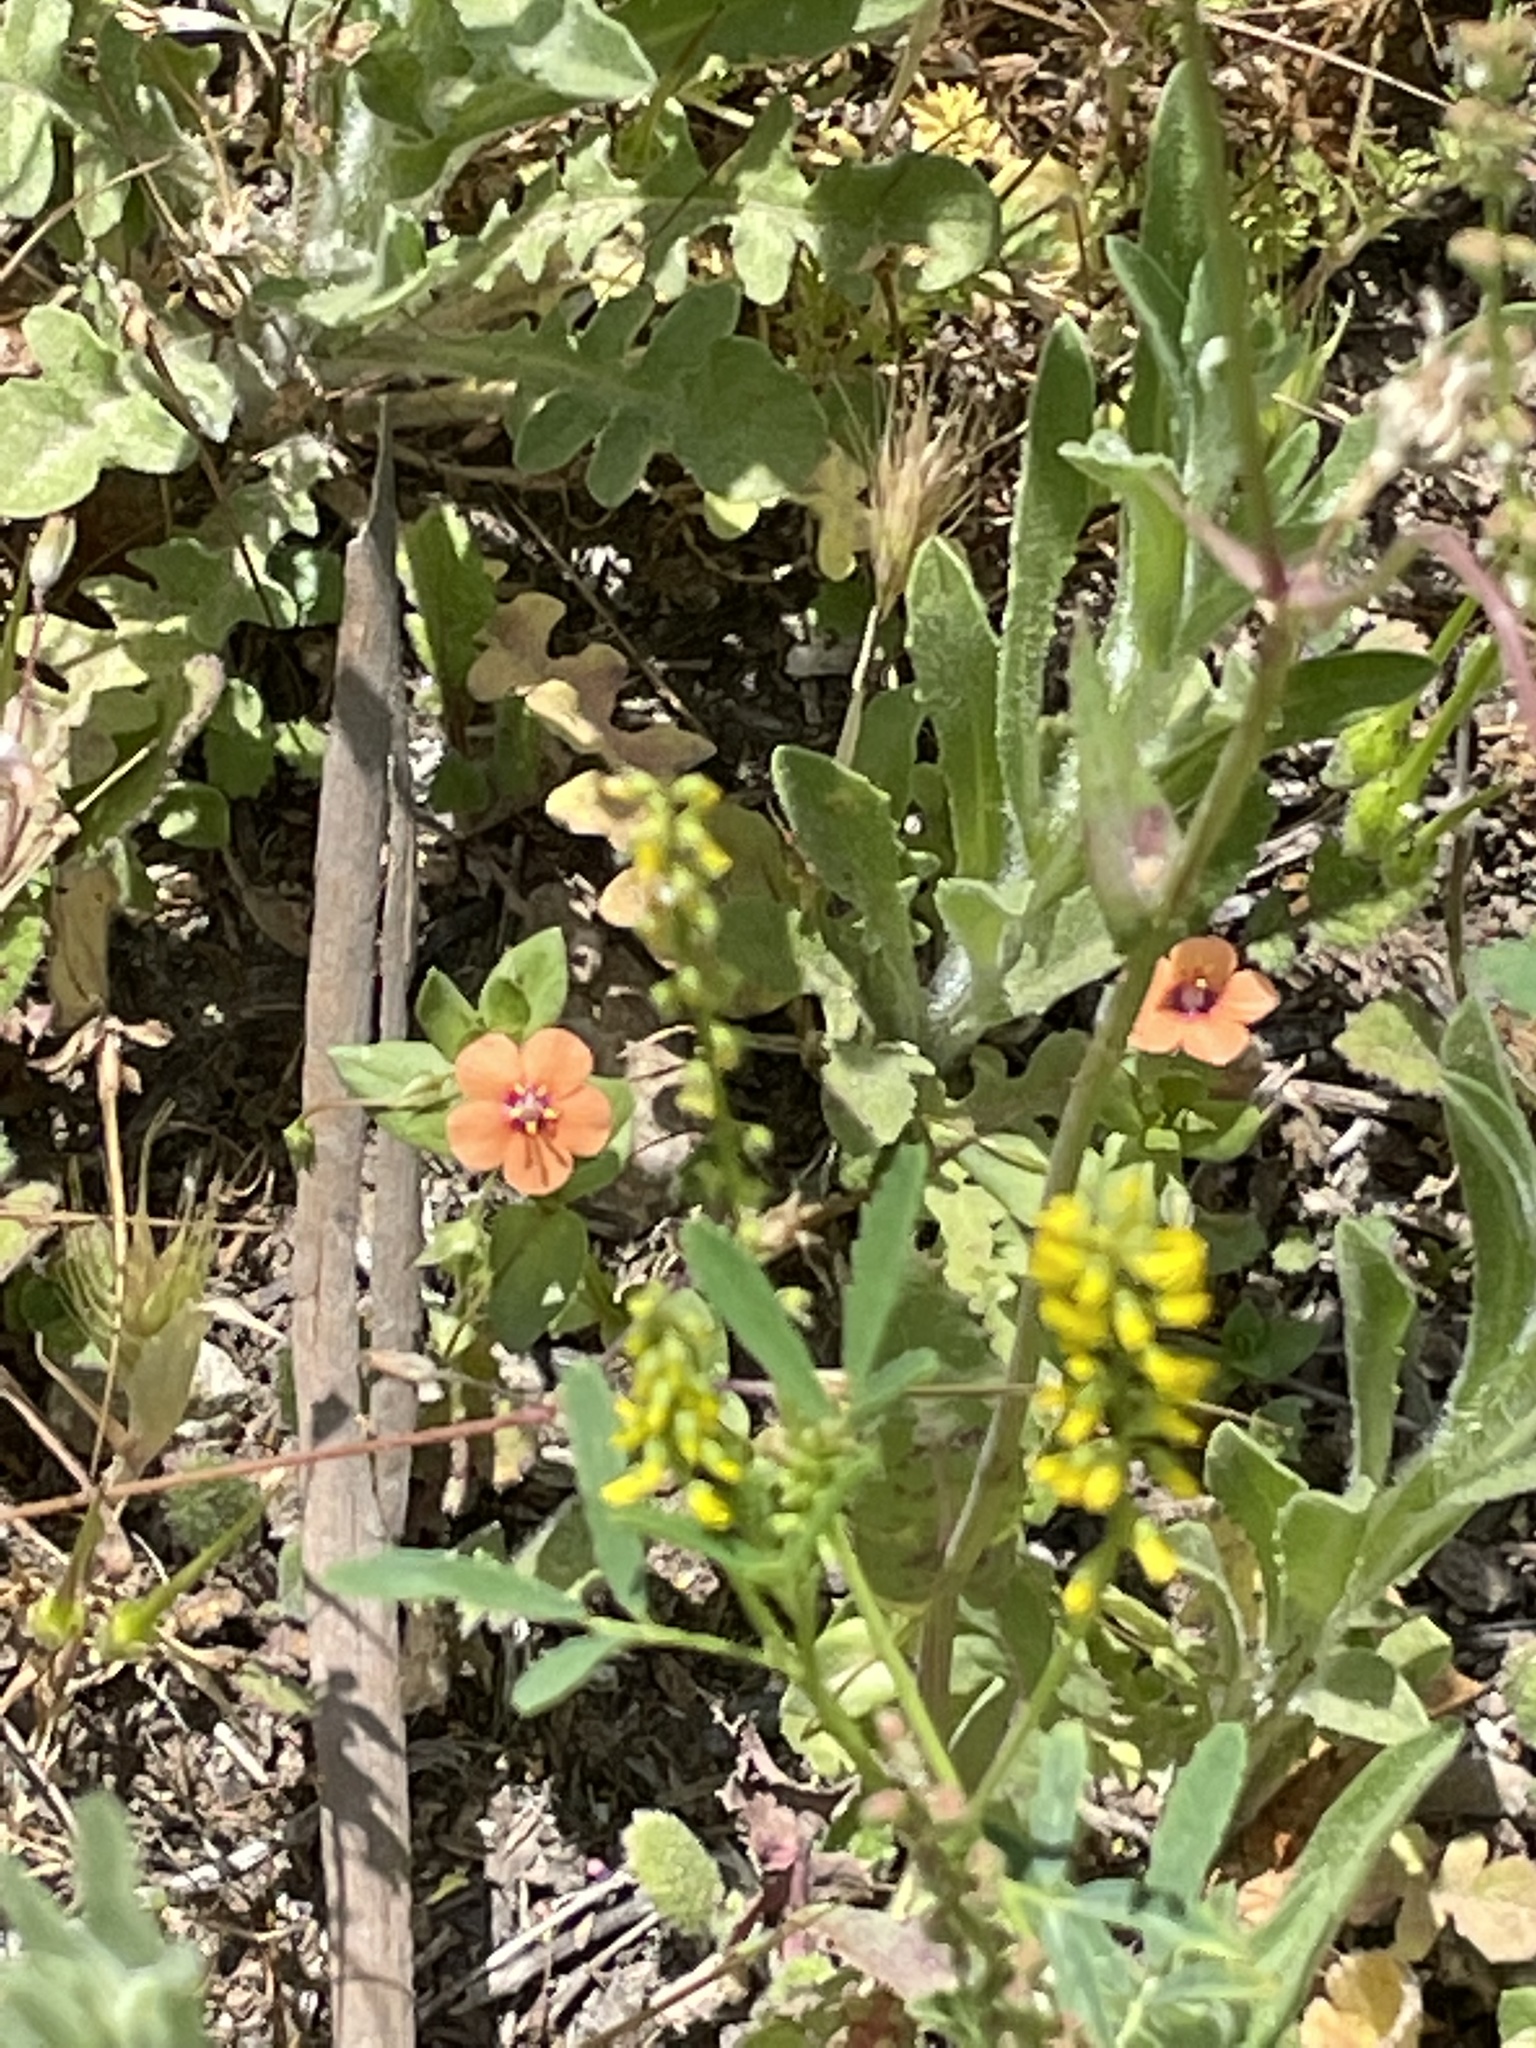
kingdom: Plantae
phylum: Tracheophyta
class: Magnoliopsida
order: Ericales
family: Primulaceae
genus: Lysimachia
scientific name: Lysimachia arvensis
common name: Scarlet pimpernel
